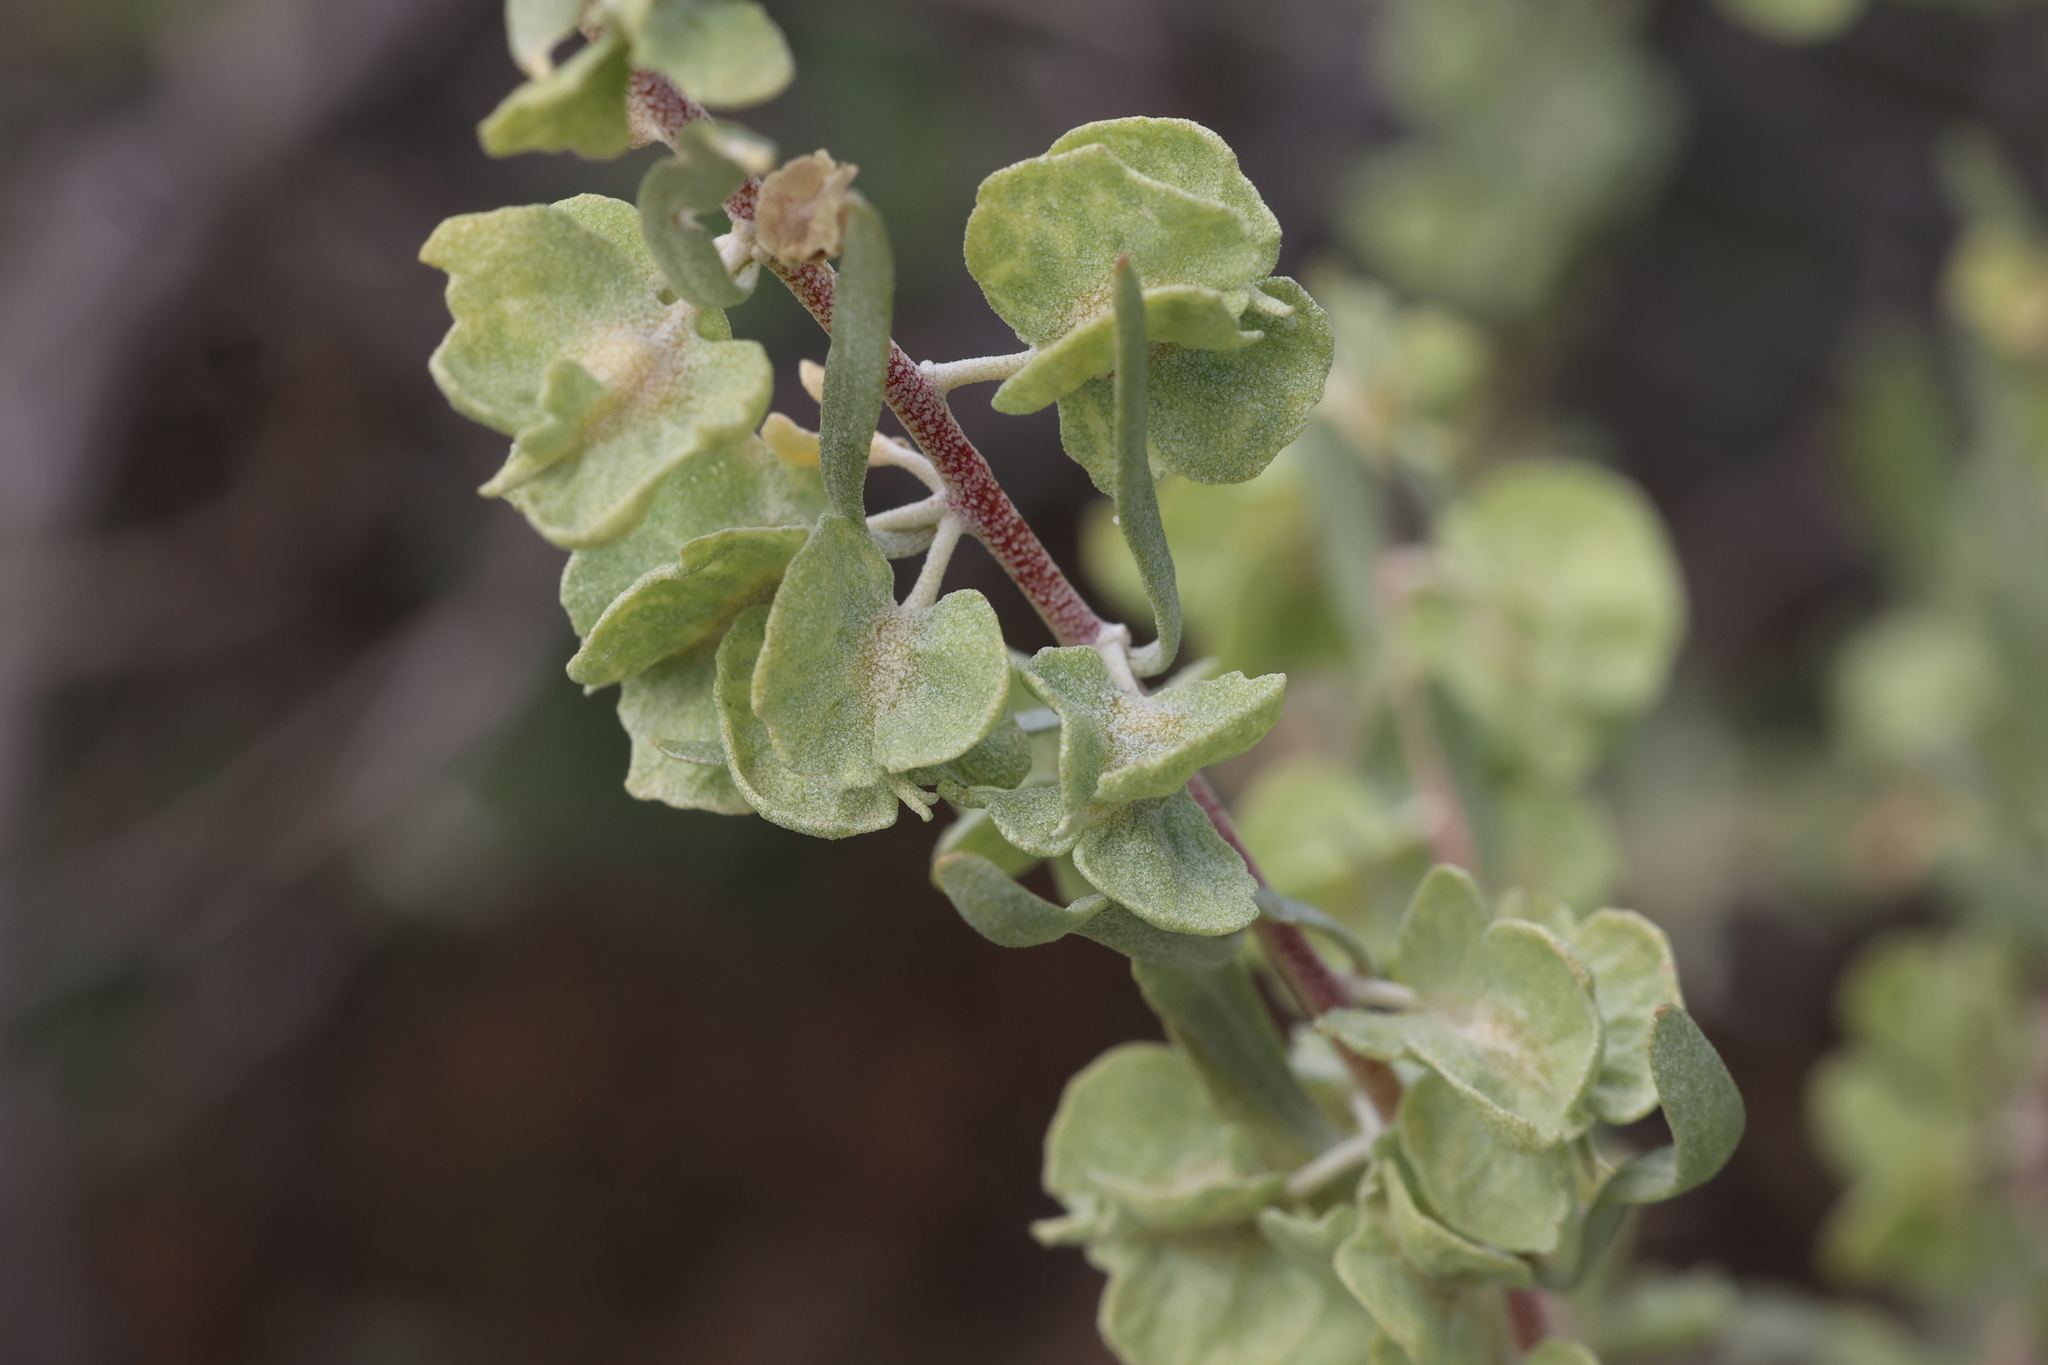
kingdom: Plantae
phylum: Tracheophyta
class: Magnoliopsida
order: Caryophyllales
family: Amaranthaceae
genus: Atriplex
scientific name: Atriplex canescens
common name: Four-wing saltbush
